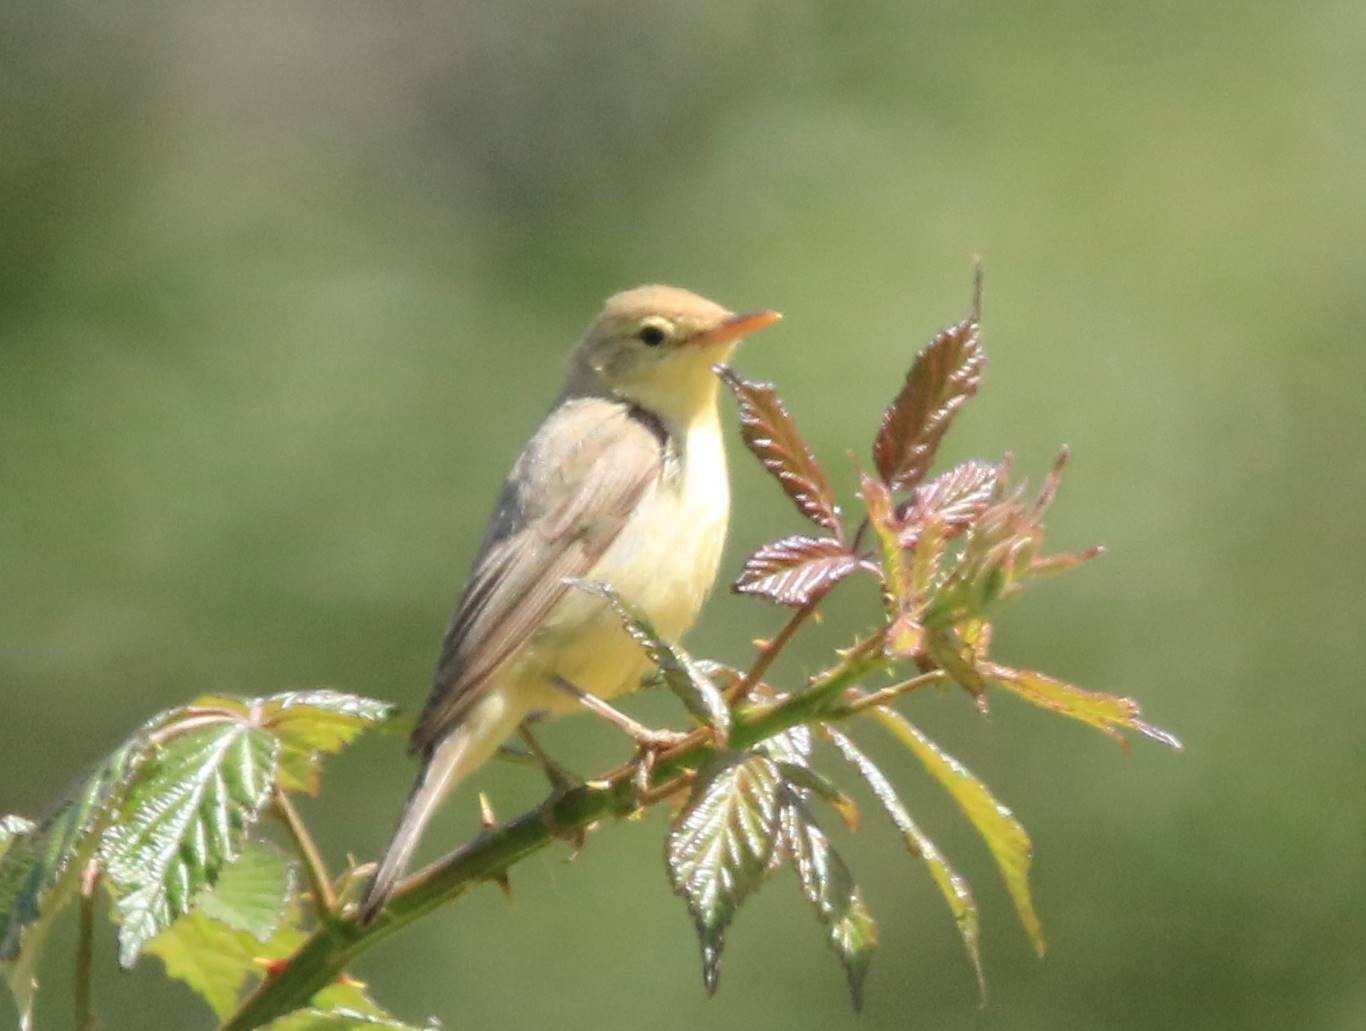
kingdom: Animalia
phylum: Chordata
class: Aves
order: Passeriformes
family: Acrocephalidae
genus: Hippolais
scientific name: Hippolais polyglotta
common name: Melodious warbler
